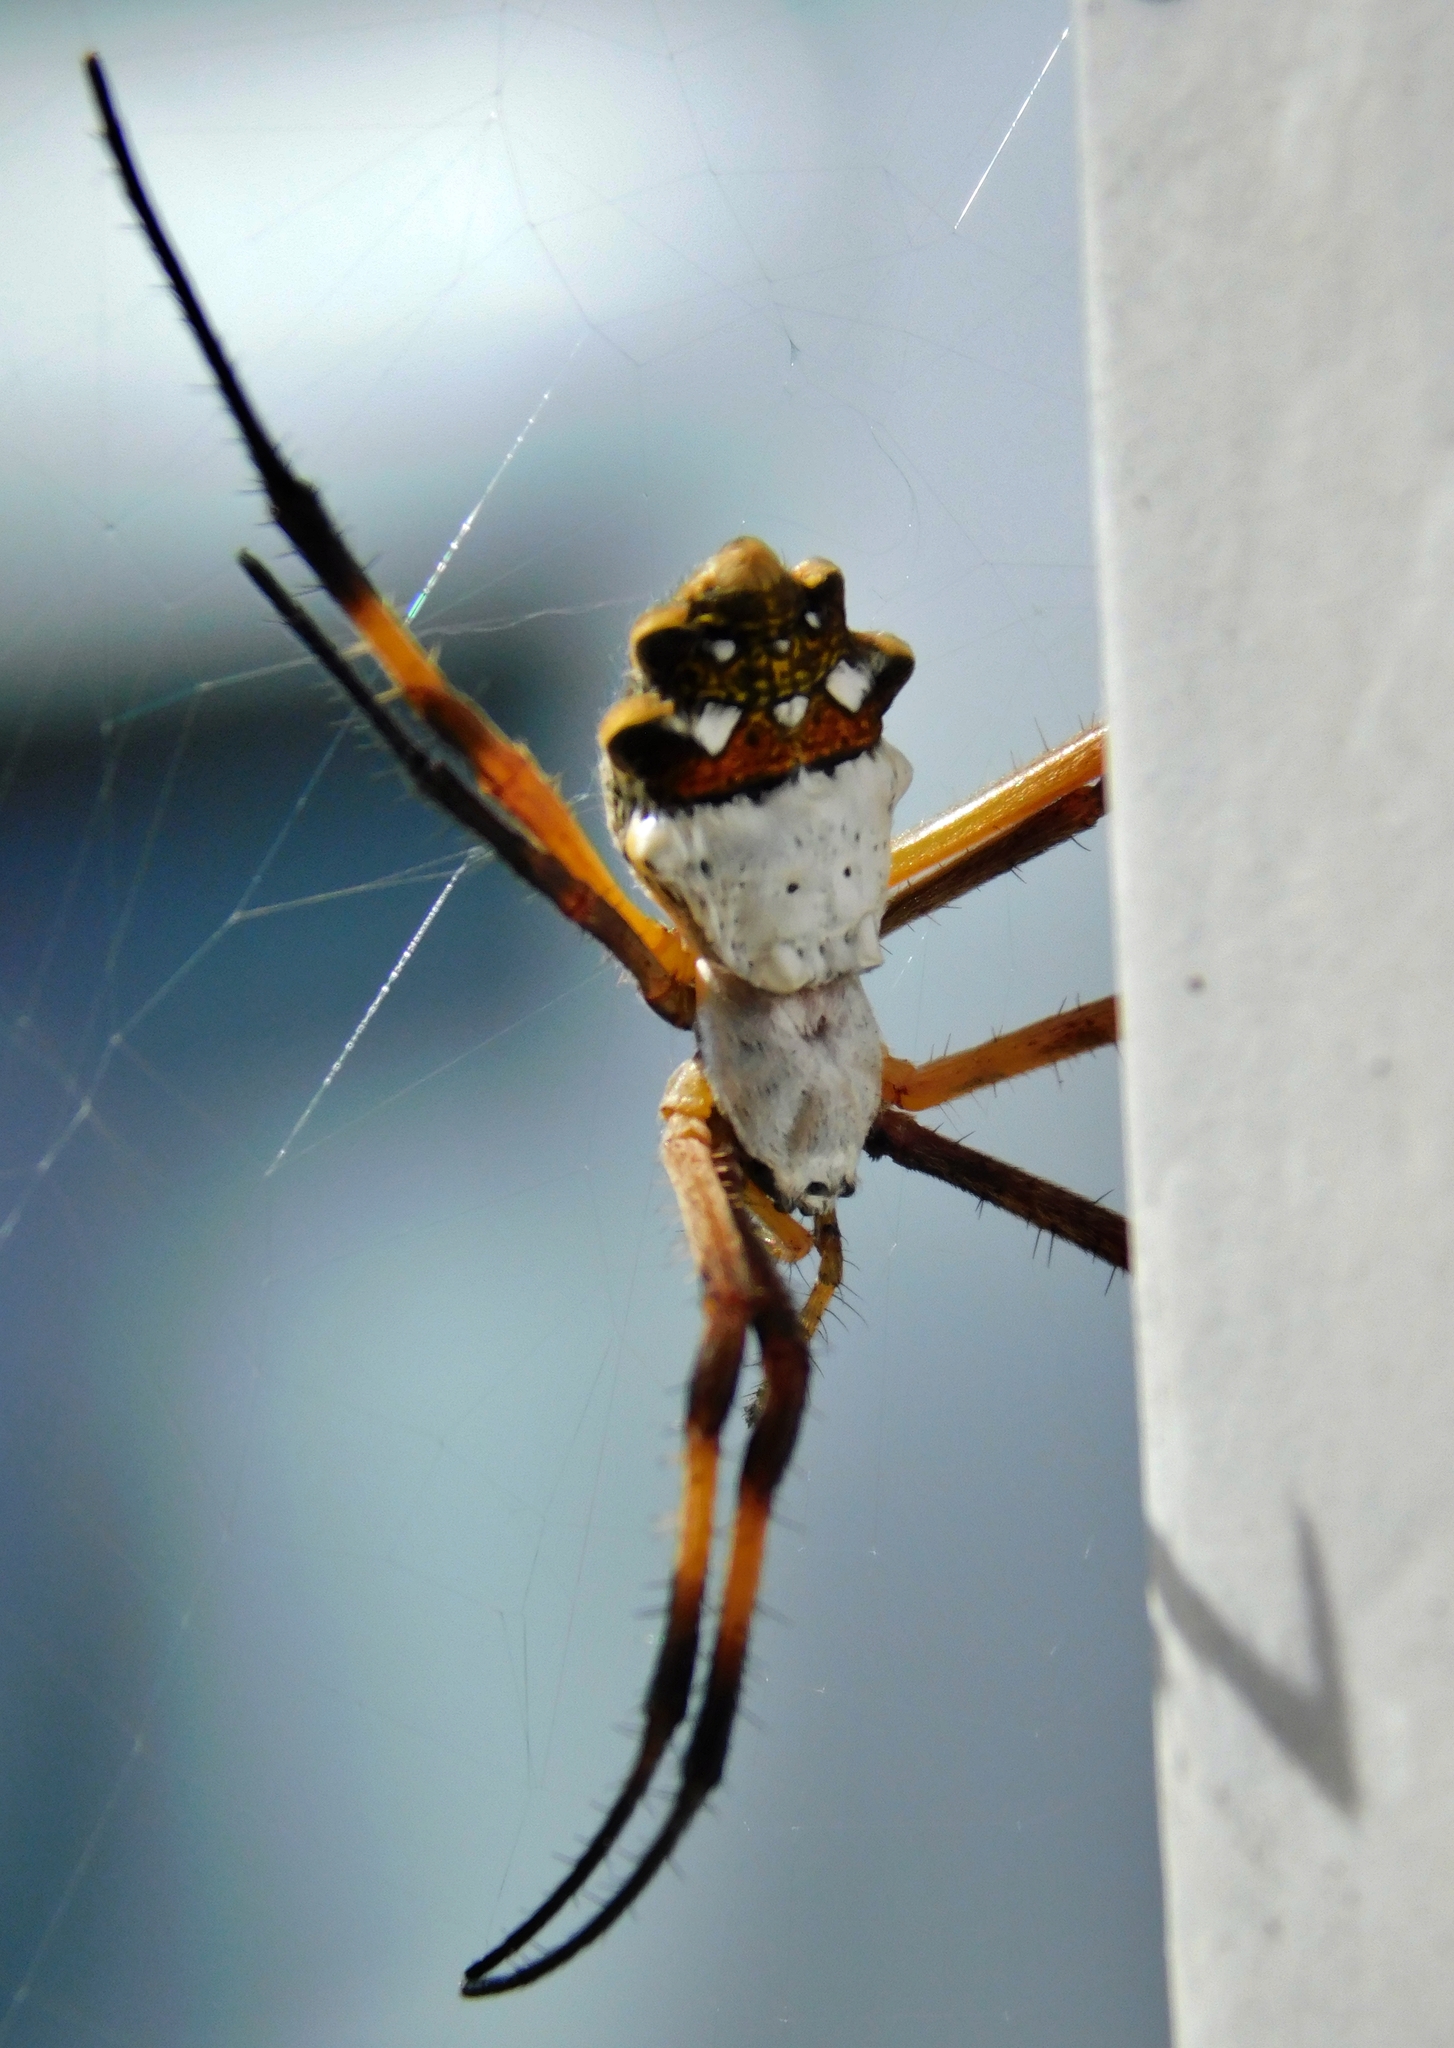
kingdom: Animalia
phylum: Arthropoda
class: Arachnida
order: Araneae
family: Araneidae
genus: Argiope
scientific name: Argiope argentata
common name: Orb weavers
